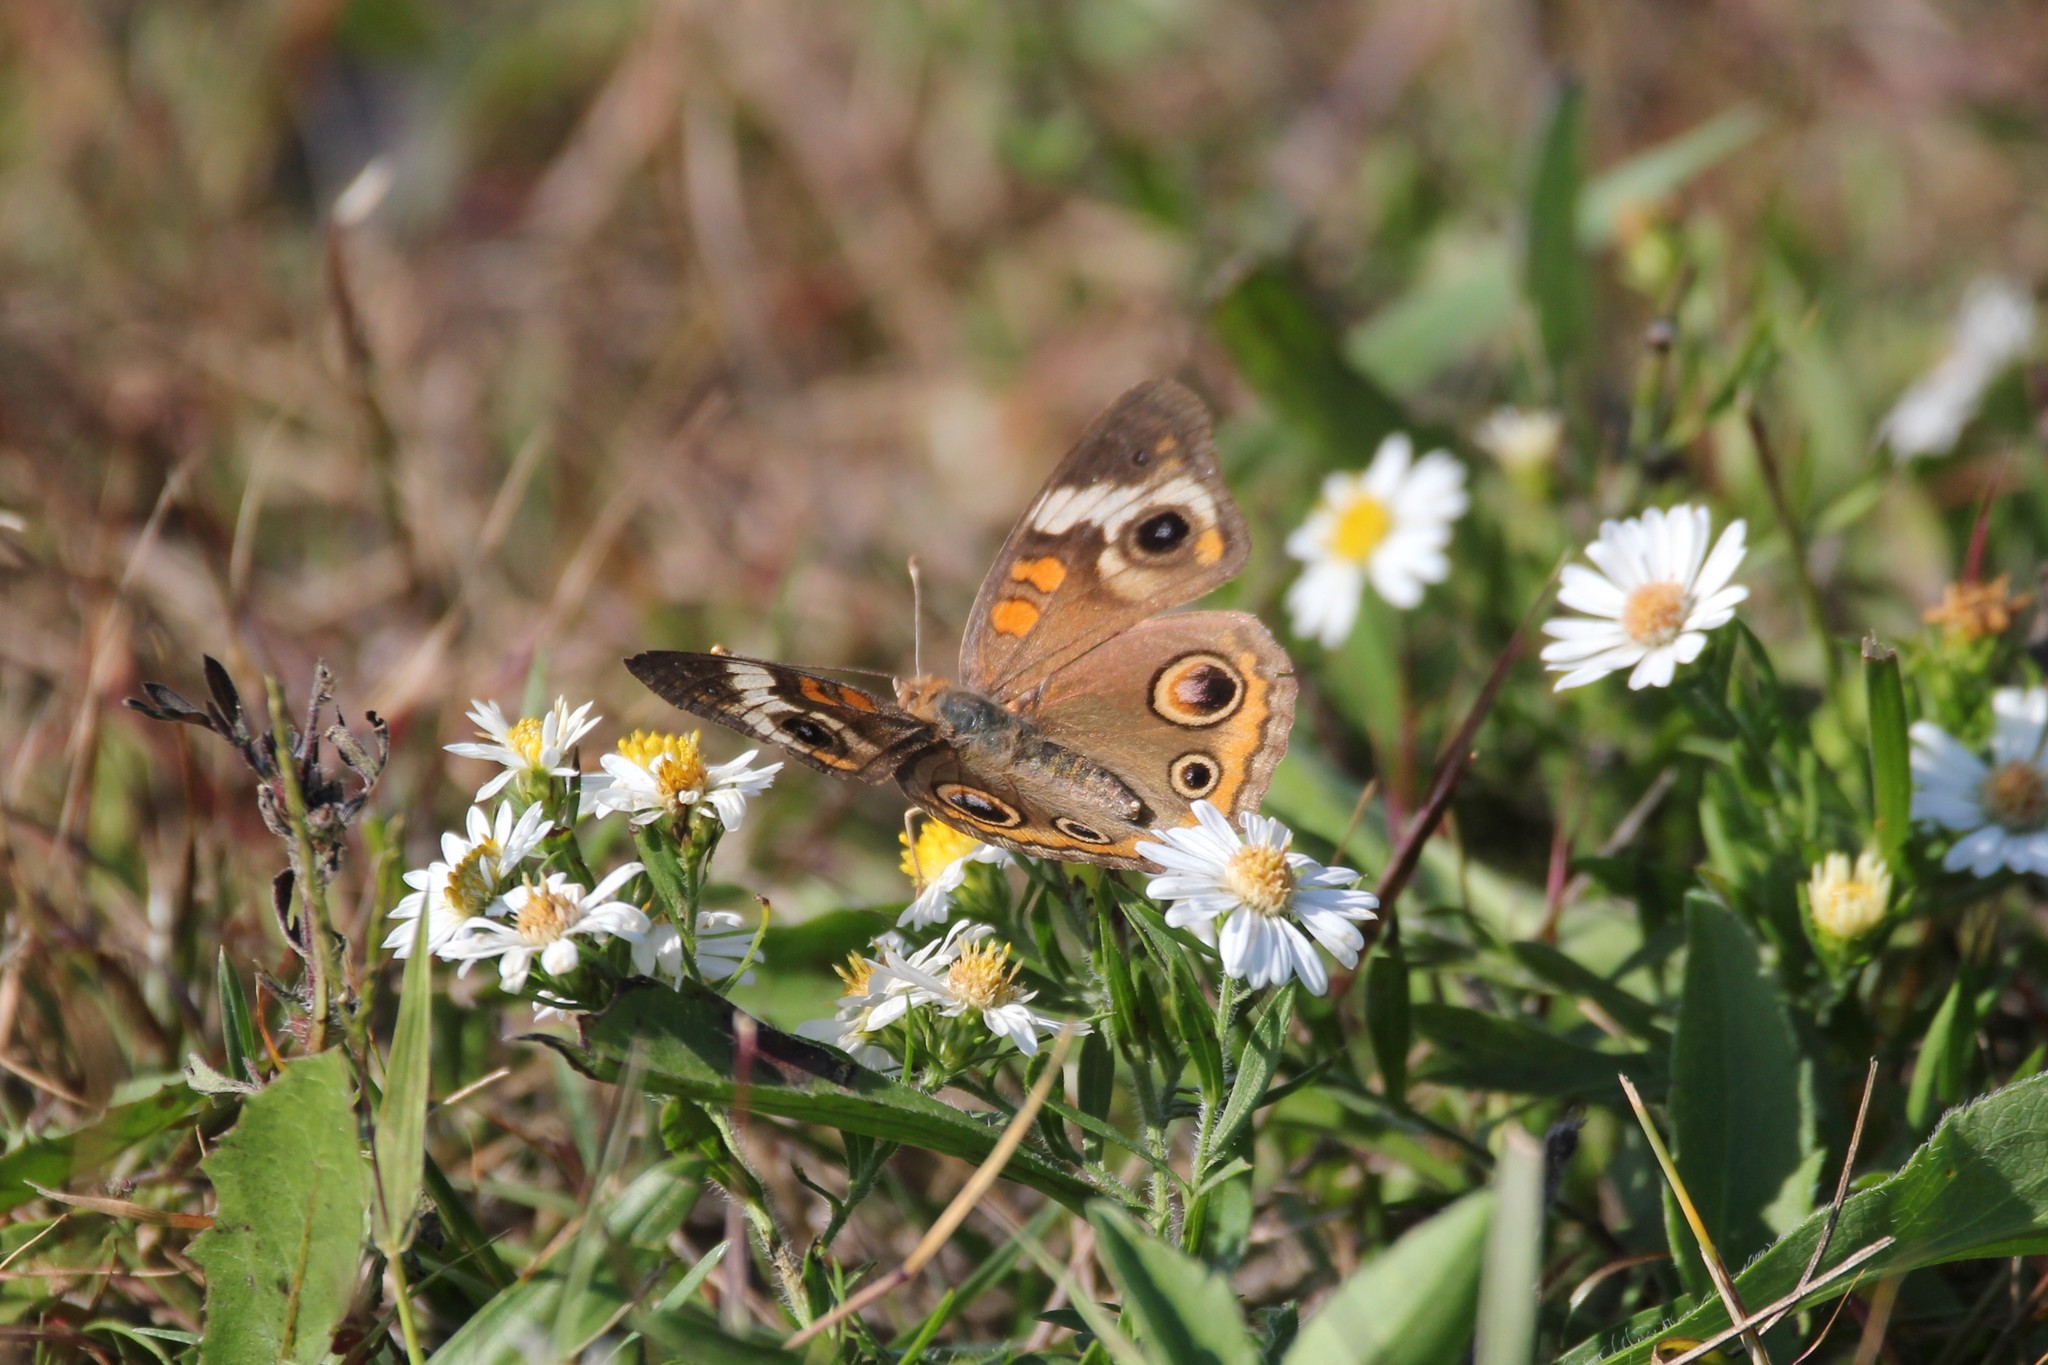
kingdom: Animalia
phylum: Arthropoda
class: Insecta
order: Lepidoptera
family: Nymphalidae
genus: Junonia
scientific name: Junonia coenia
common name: Common buckeye
